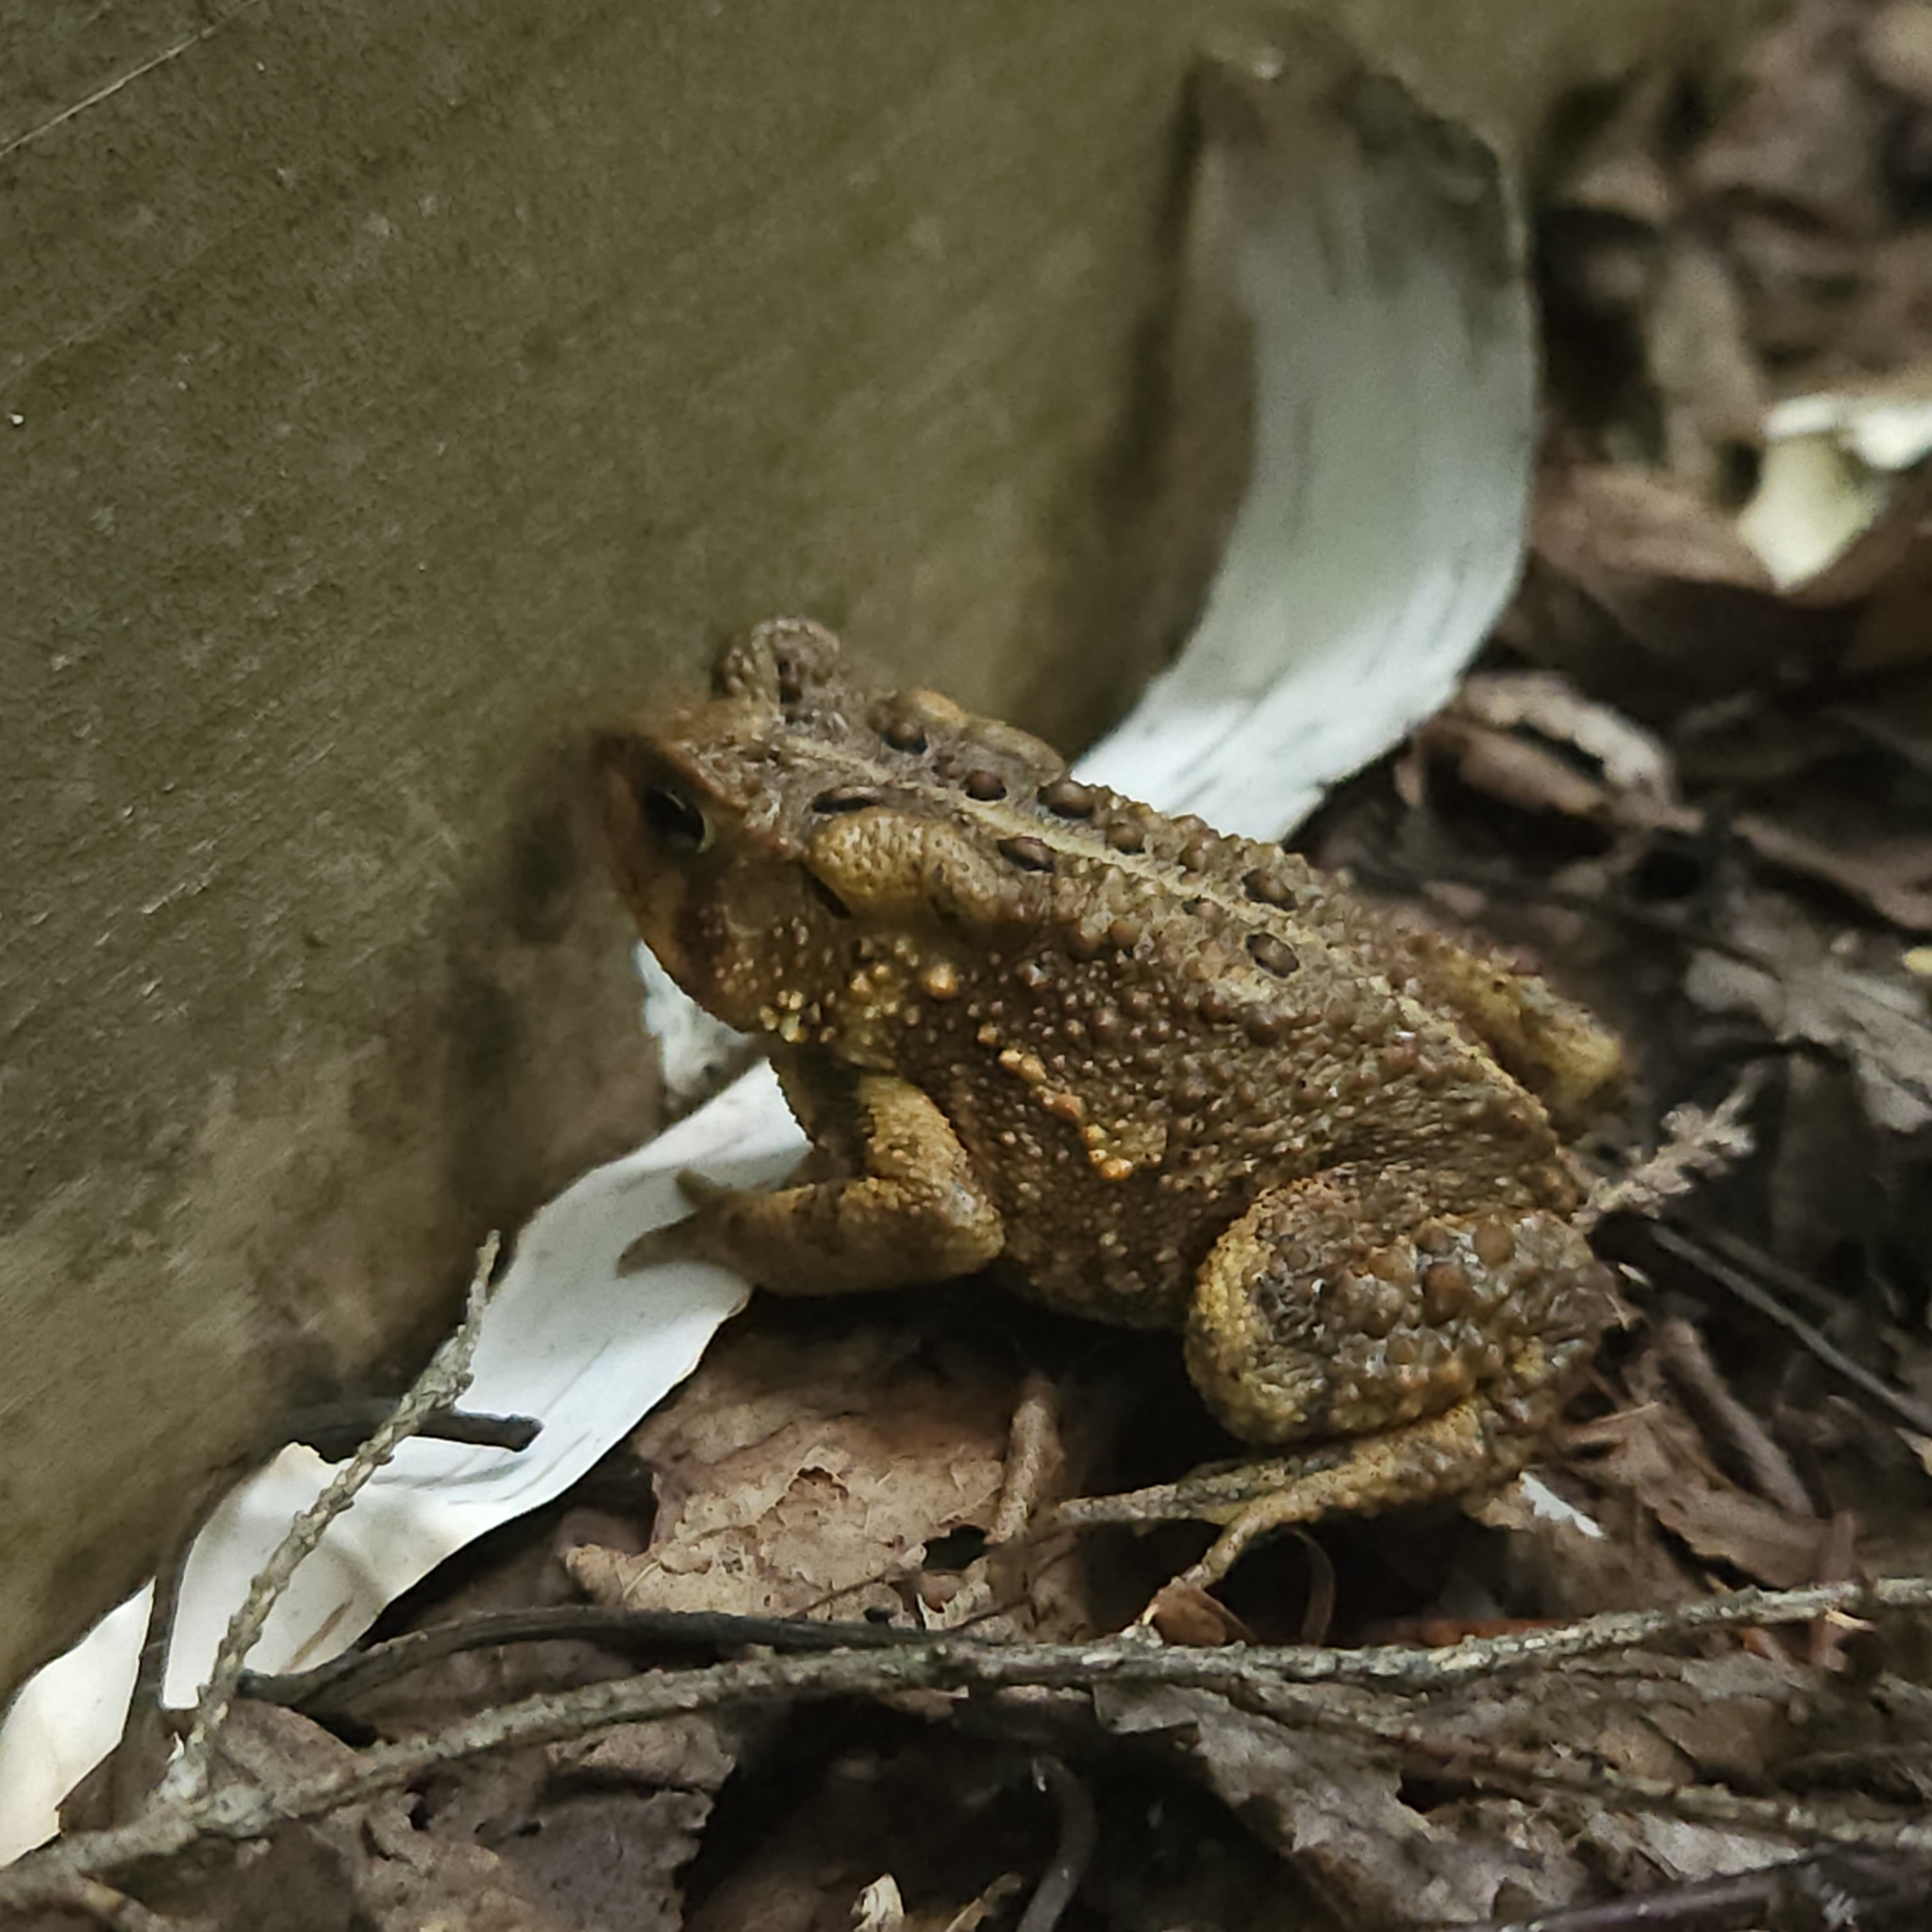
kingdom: Animalia
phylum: Chordata
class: Amphibia
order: Anura
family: Bufonidae
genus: Anaxyrus
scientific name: Anaxyrus americanus
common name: American toad
